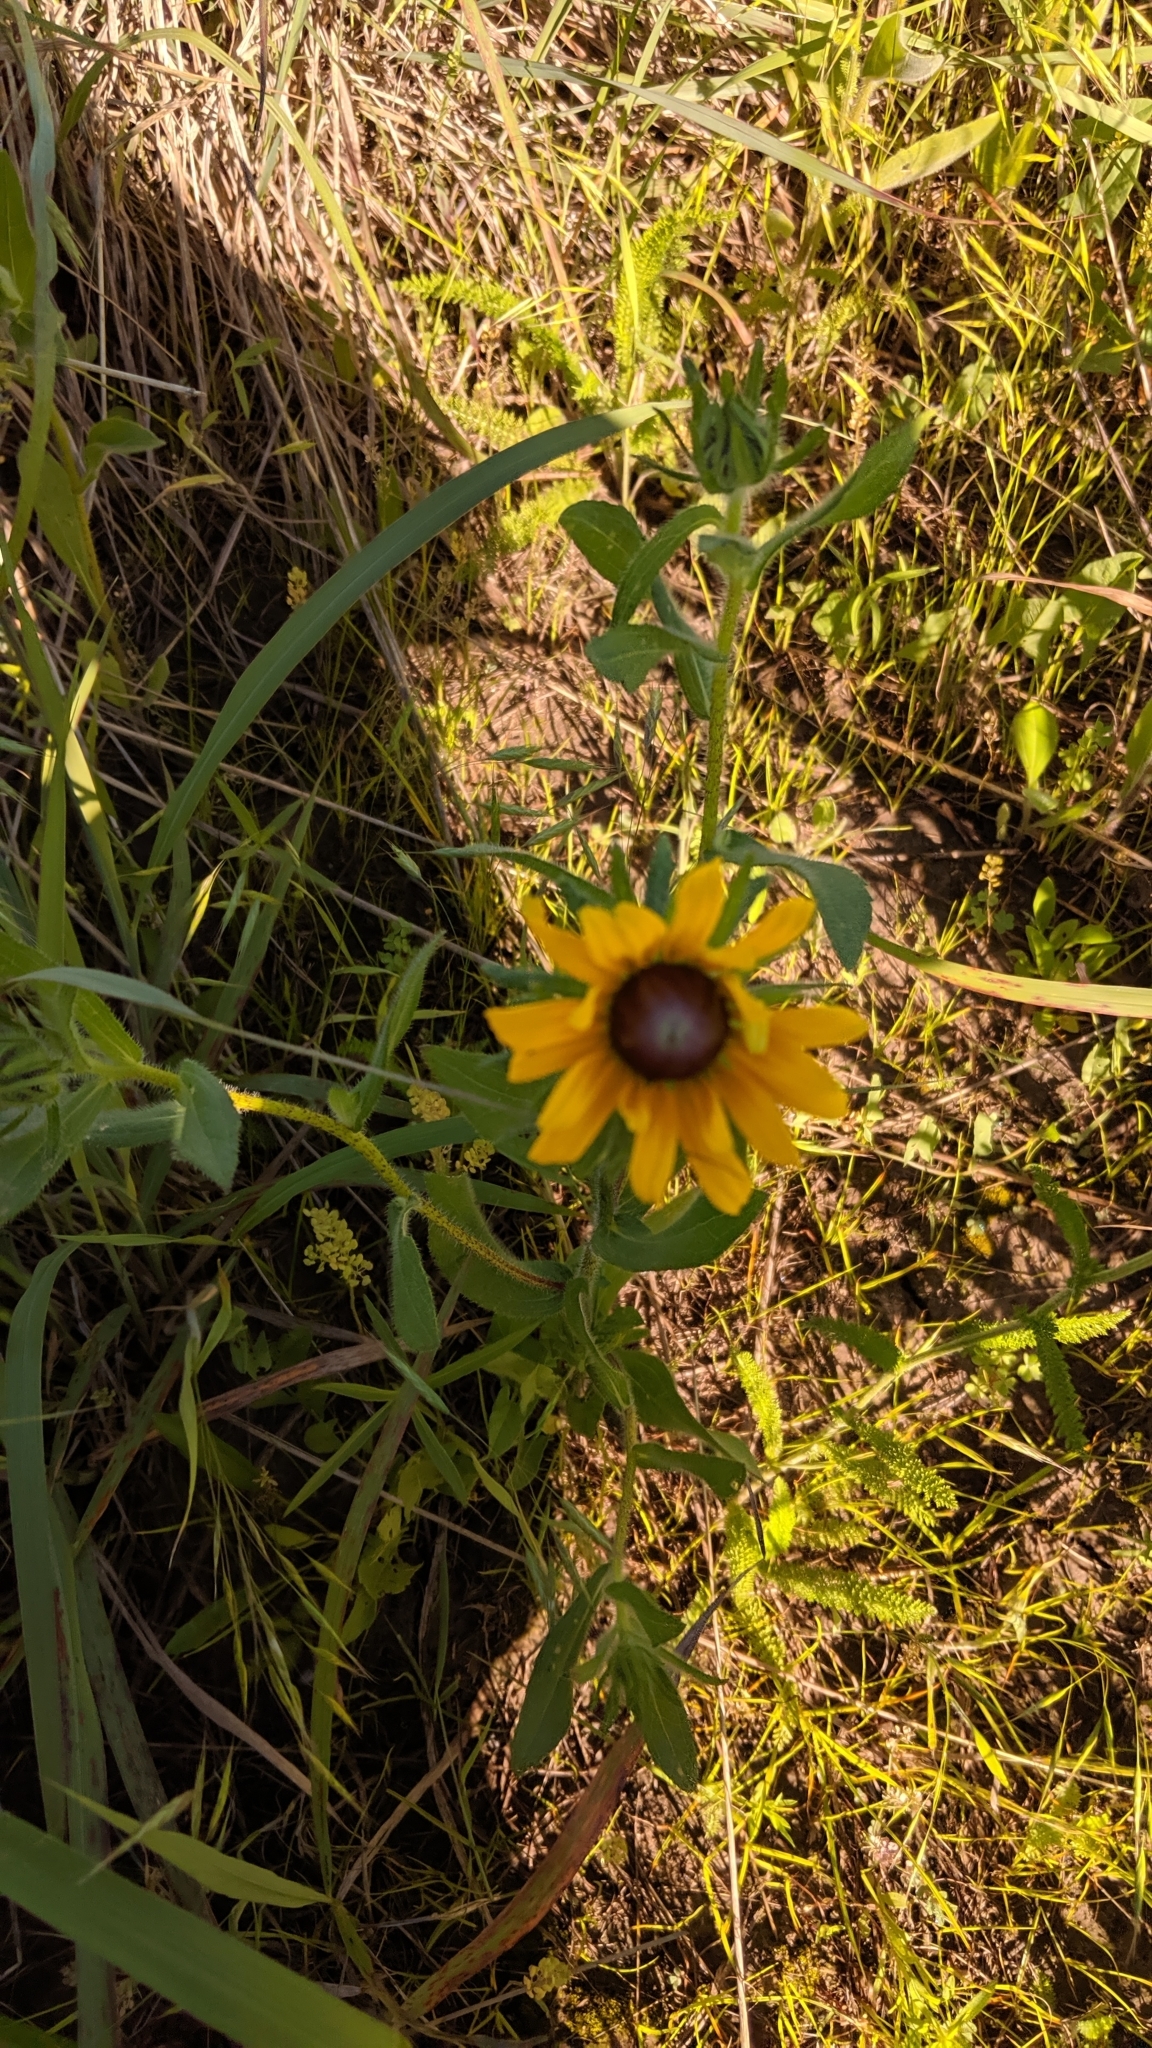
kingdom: Plantae
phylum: Tracheophyta
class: Magnoliopsida
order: Asterales
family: Asteraceae
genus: Rudbeckia
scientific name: Rudbeckia hirta
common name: Black-eyed-susan
